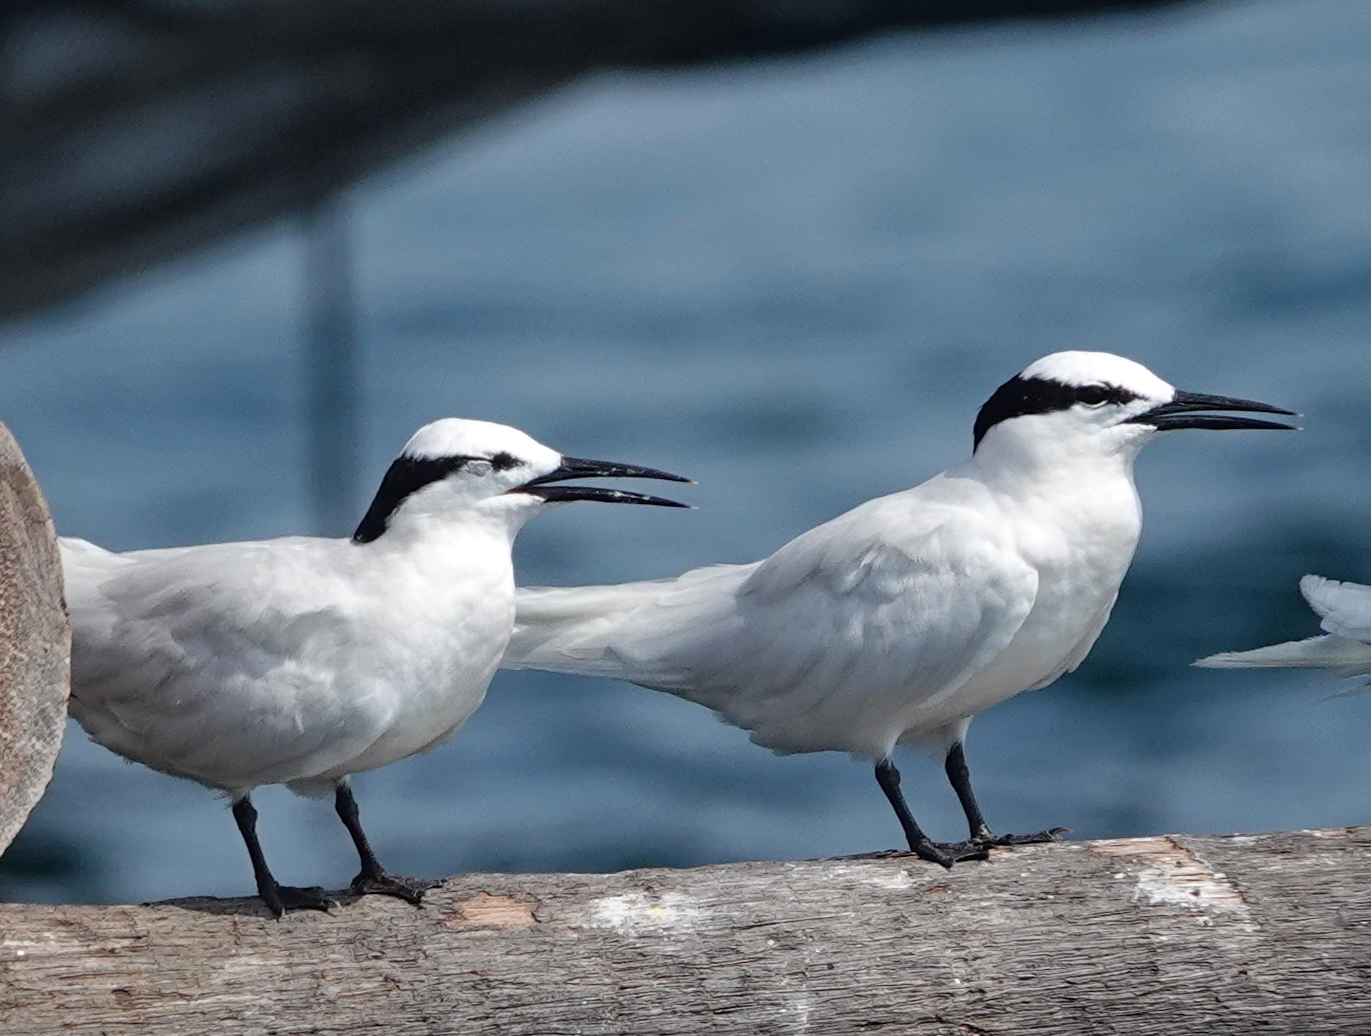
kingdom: Animalia
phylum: Chordata
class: Aves
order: Charadriiformes
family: Laridae
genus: Sterna
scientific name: Sterna sumatrana
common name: Black-naped tern
